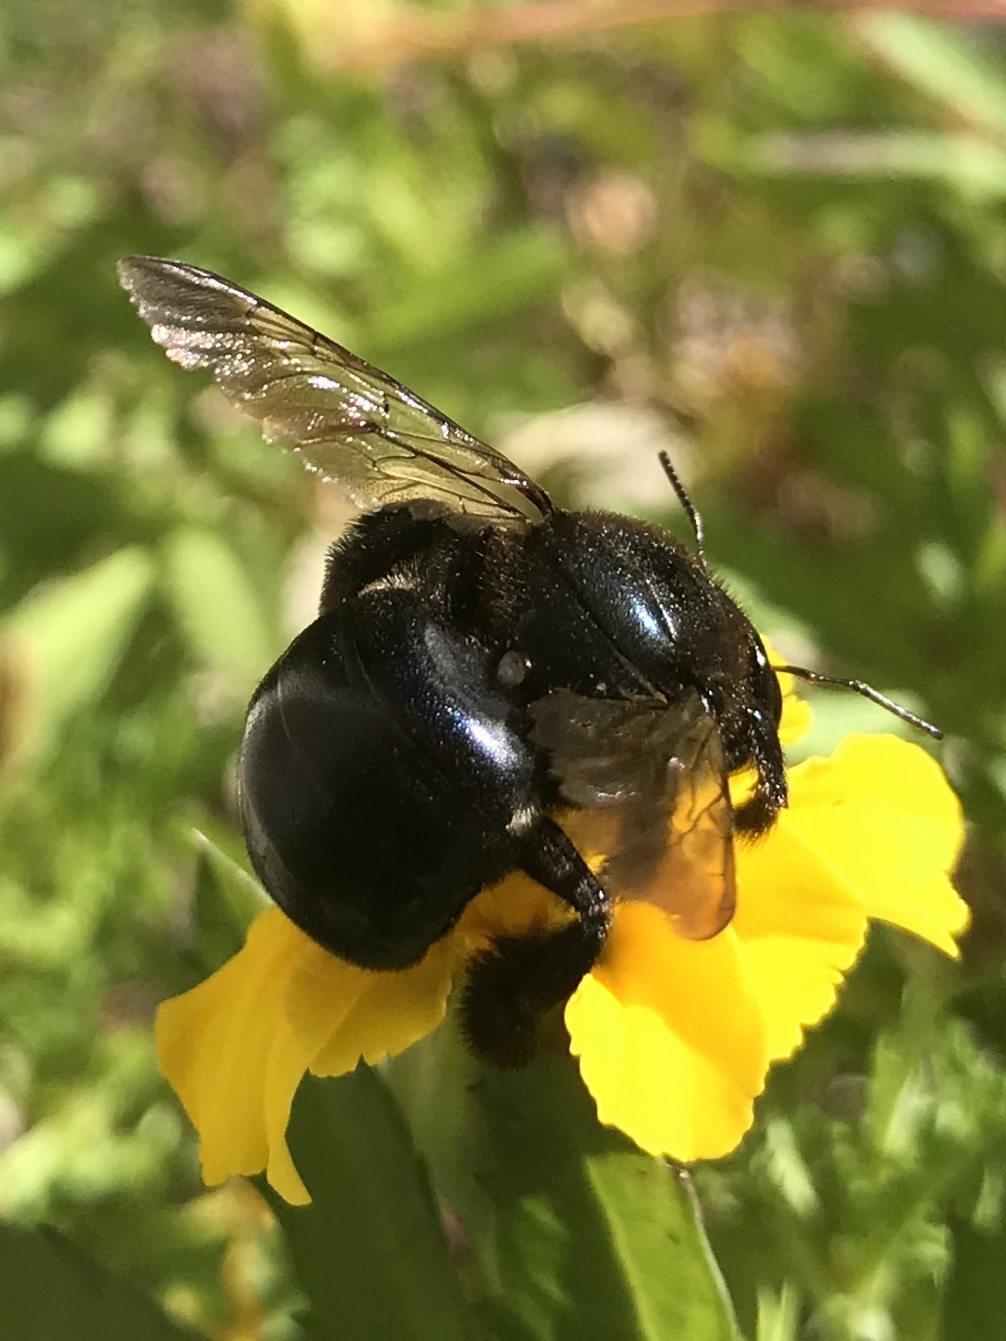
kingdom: Animalia
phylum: Arthropoda
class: Insecta
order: Hymenoptera
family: Apidae
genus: Xylocopa
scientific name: Xylocopa micans
